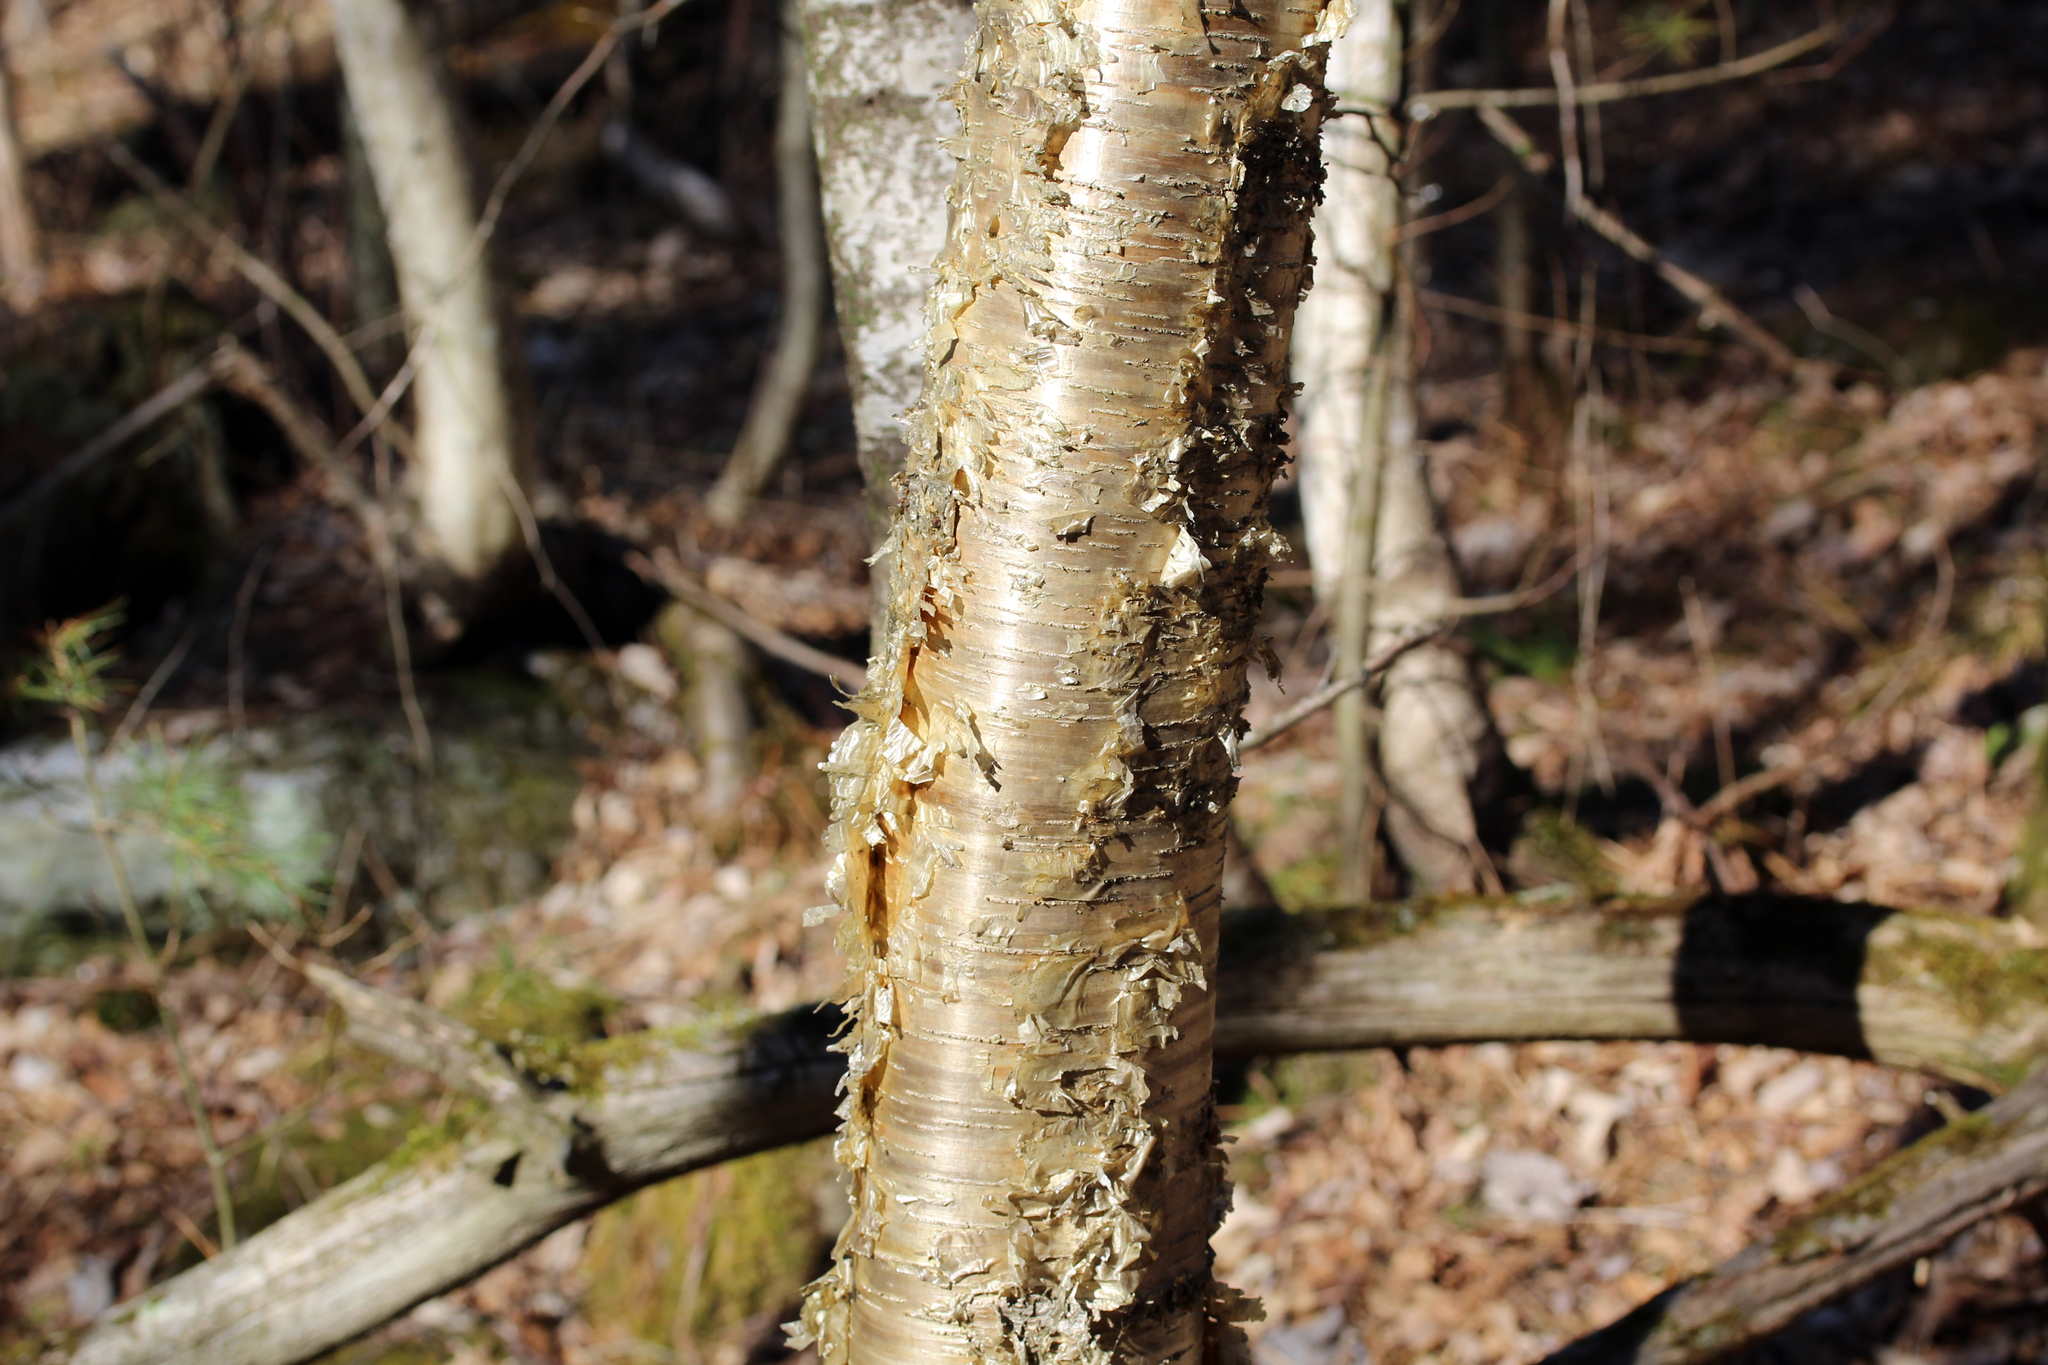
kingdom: Plantae
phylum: Tracheophyta
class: Magnoliopsida
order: Fagales
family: Betulaceae
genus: Betula
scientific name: Betula alleghaniensis
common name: Yellow birch
